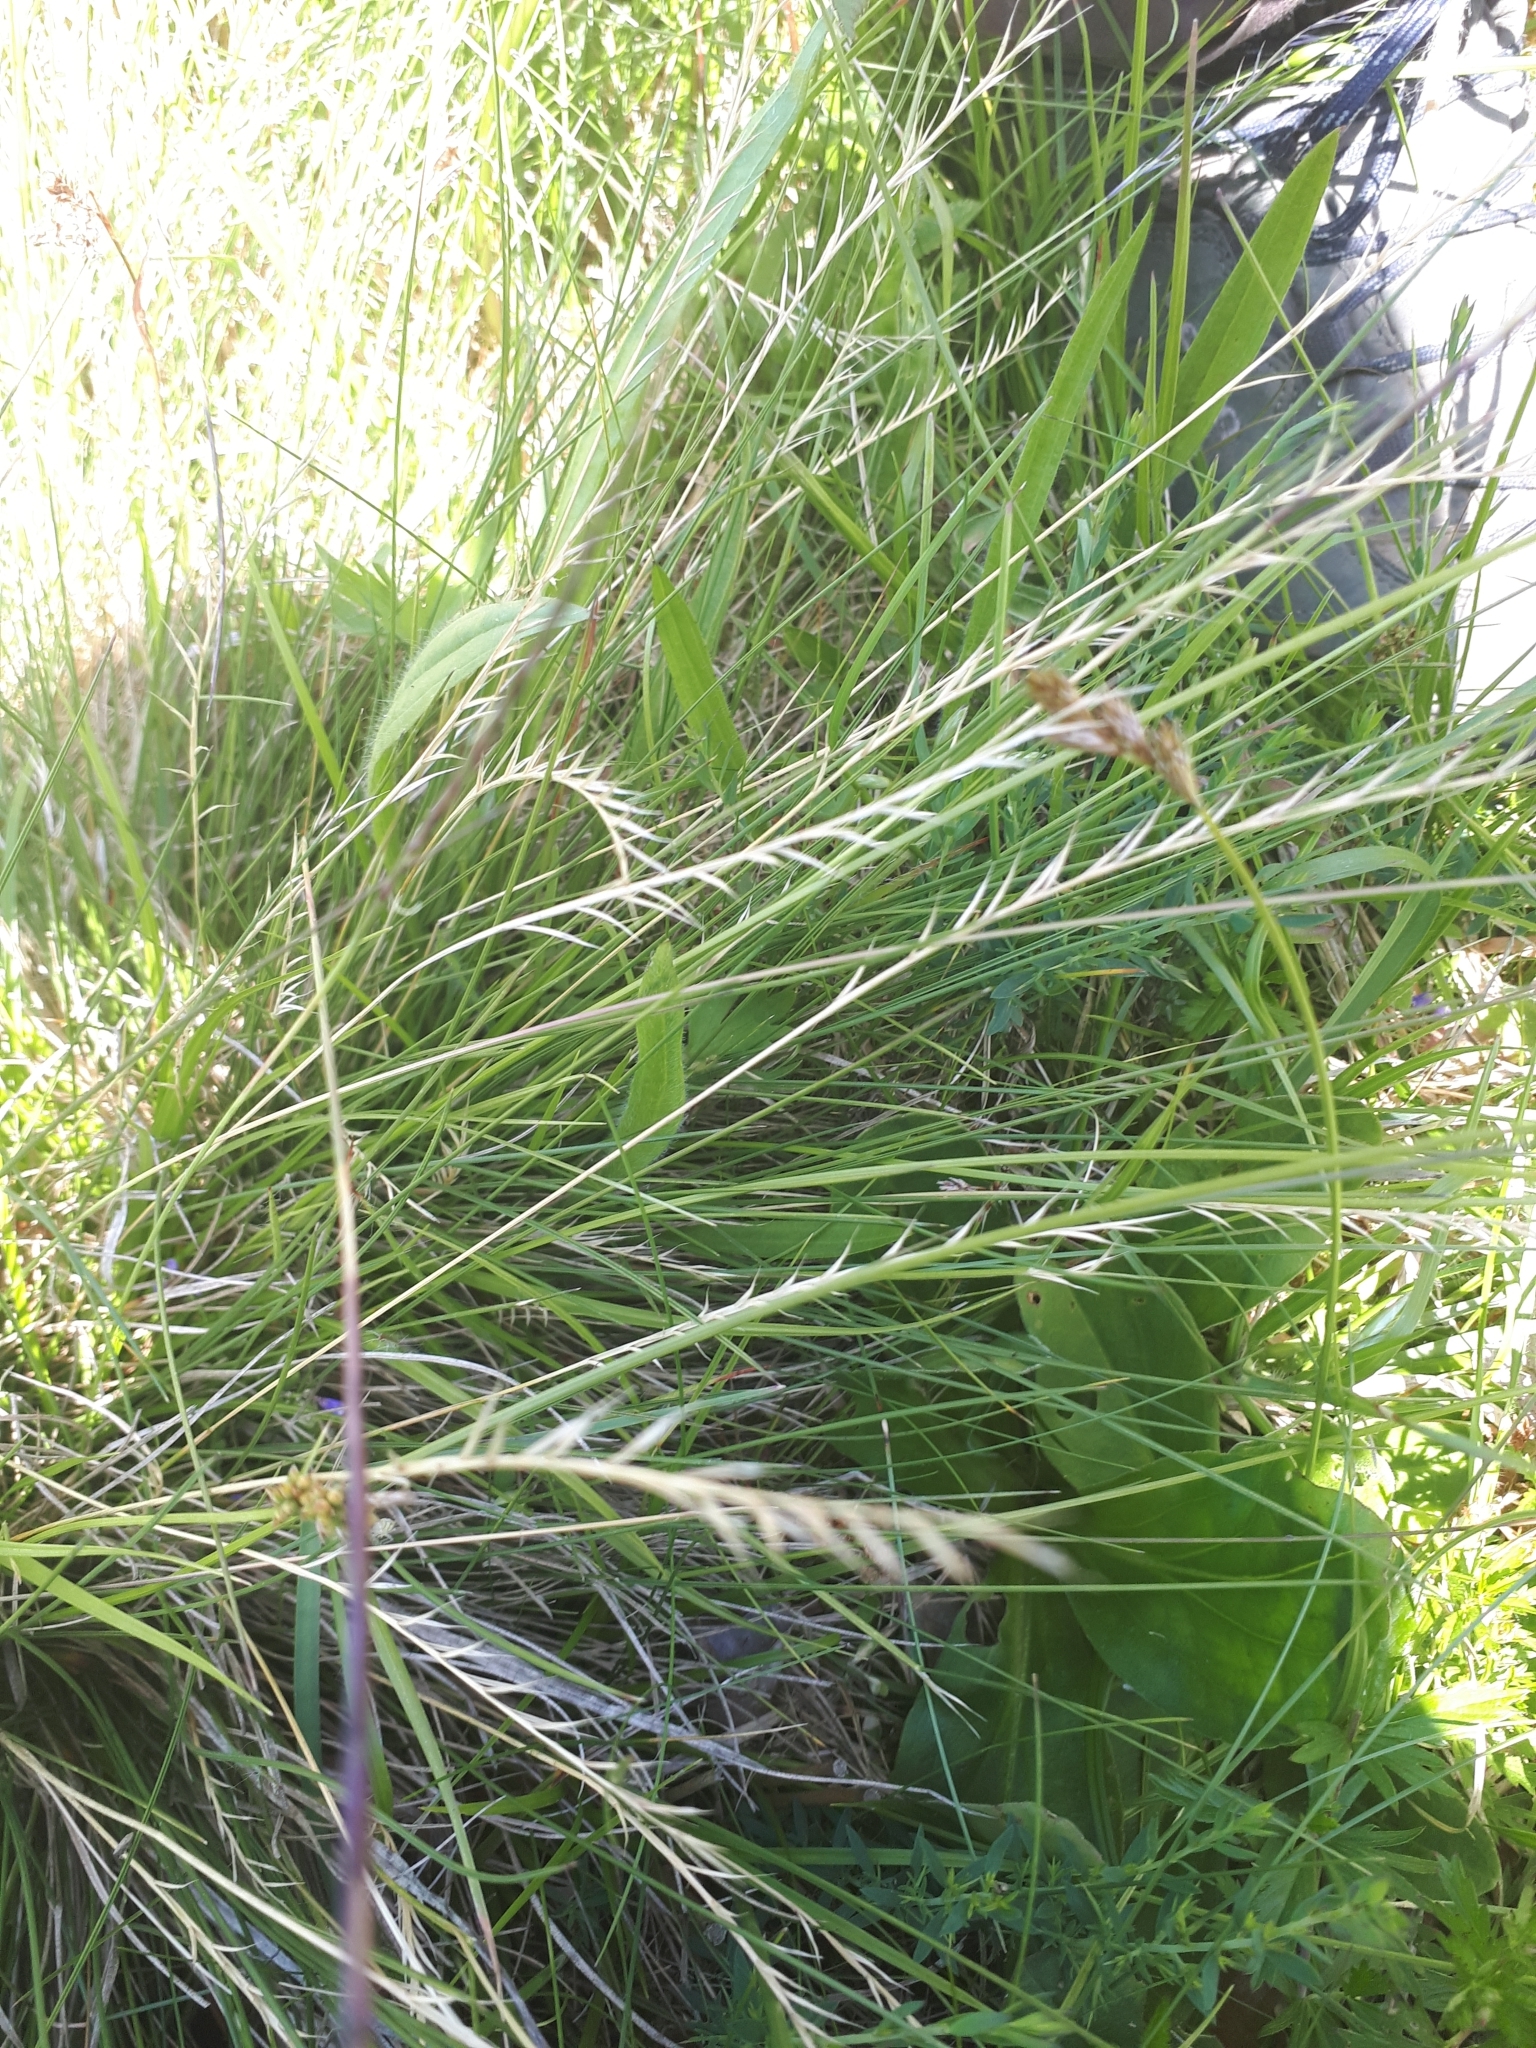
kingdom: Plantae
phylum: Tracheophyta
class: Liliopsida
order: Poales
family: Poaceae
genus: Nardus
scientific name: Nardus stricta
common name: Mat-grass
